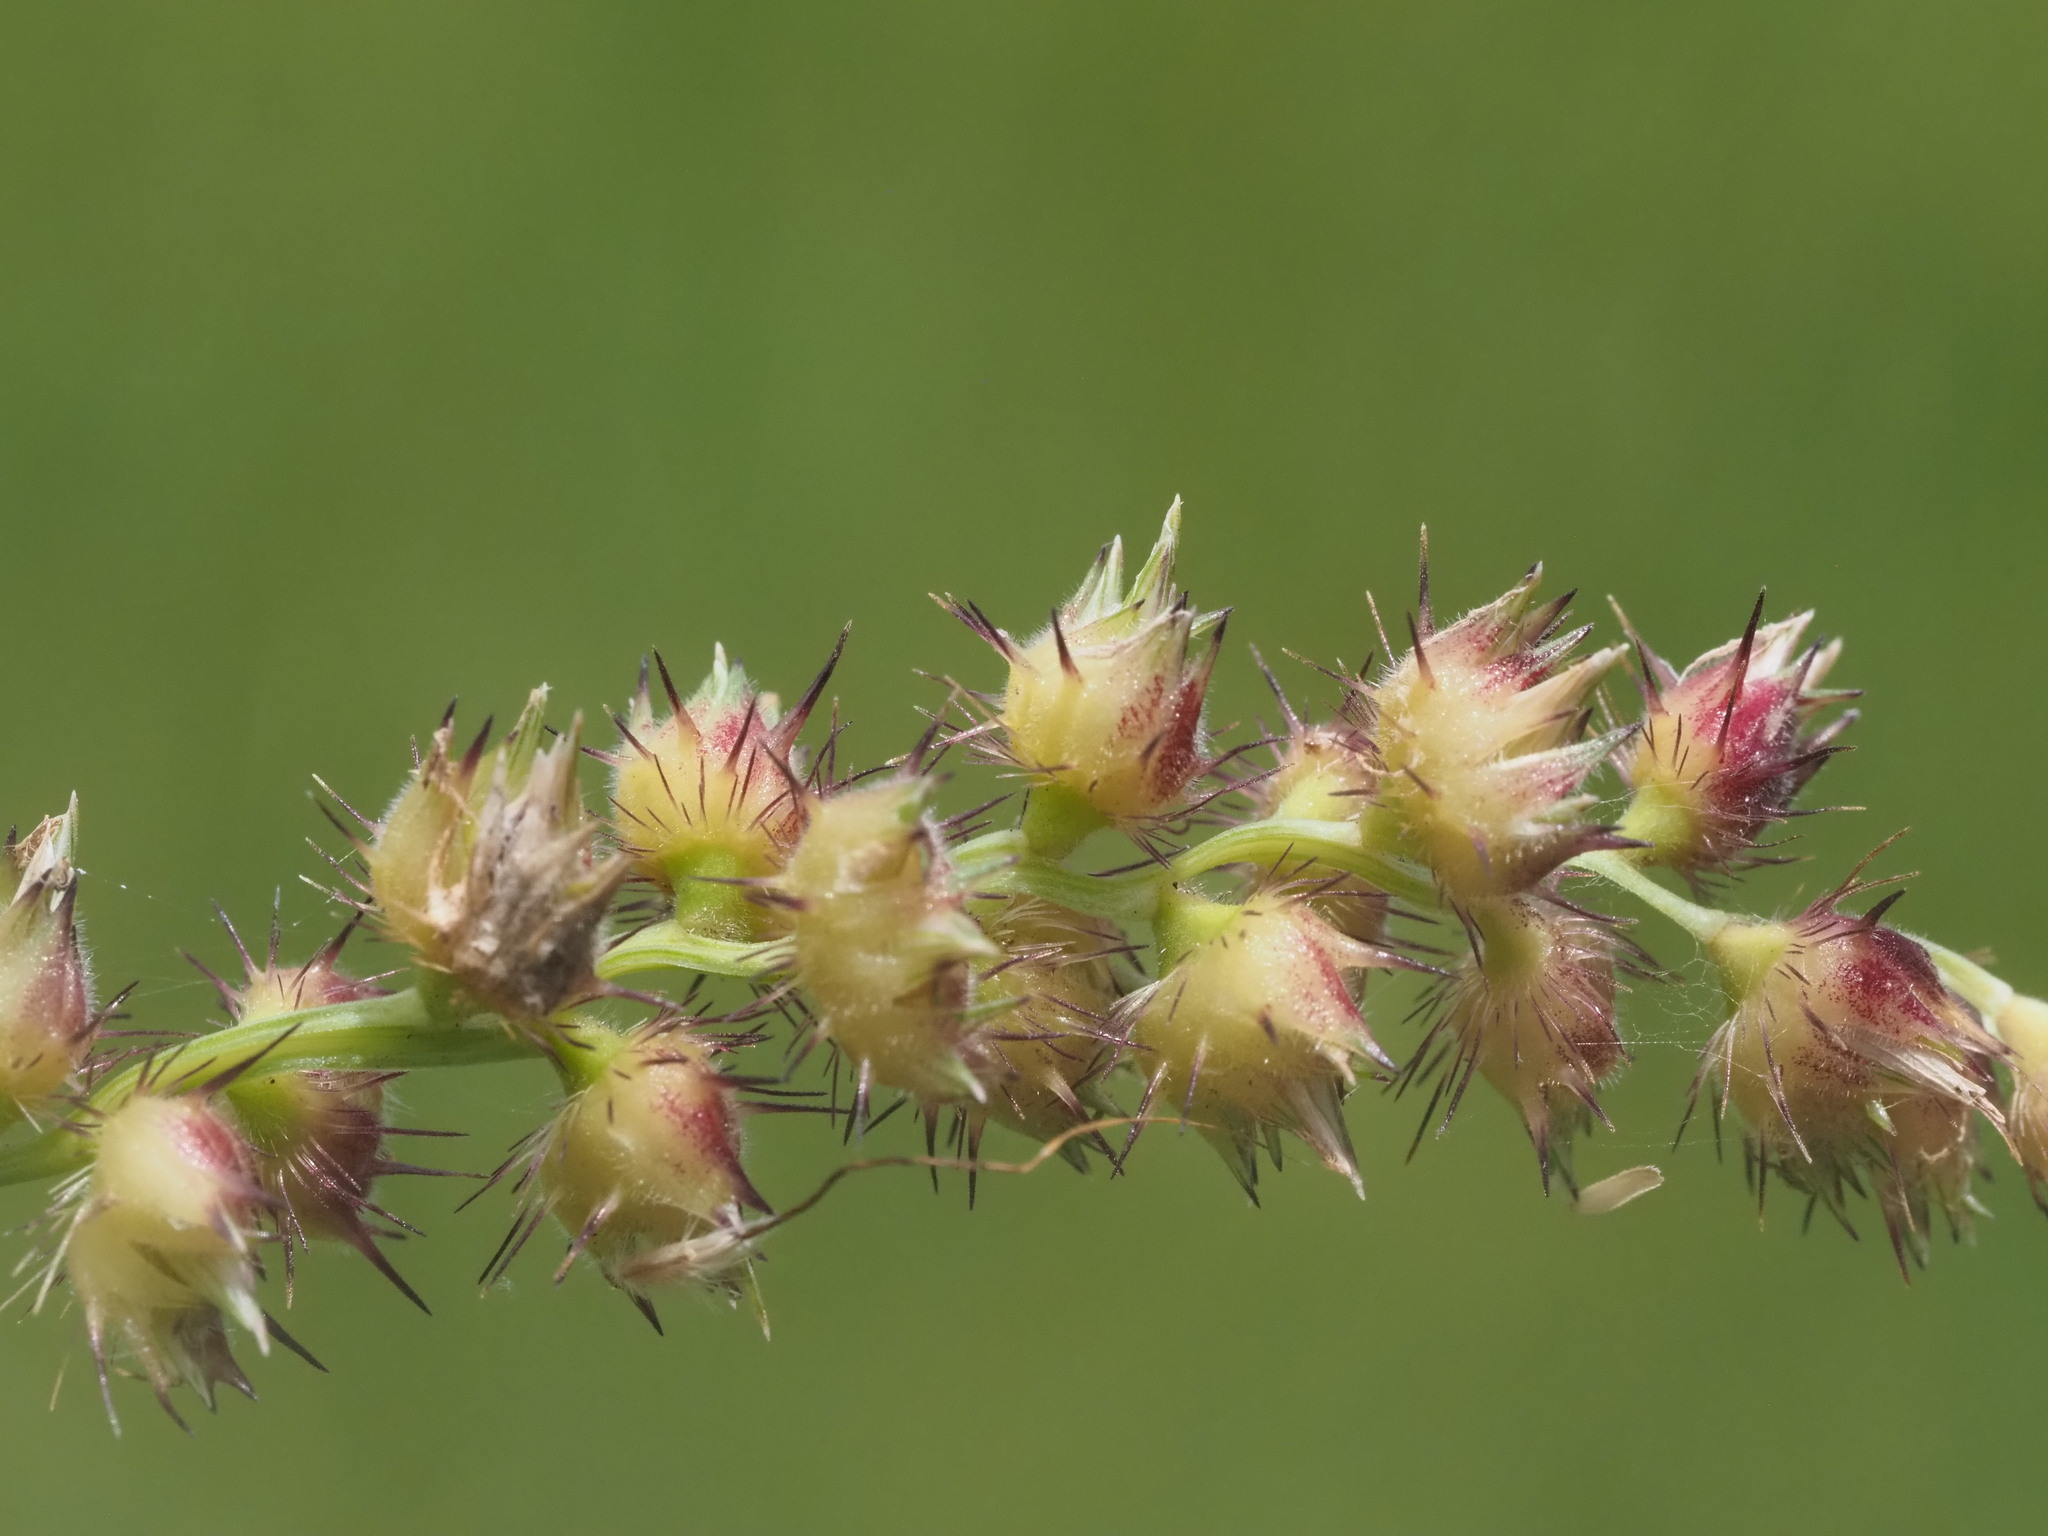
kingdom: Plantae
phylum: Tracheophyta
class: Liliopsida
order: Poales
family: Poaceae
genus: Cenchrus
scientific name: Cenchrus echinatus
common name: Southern sandbur
